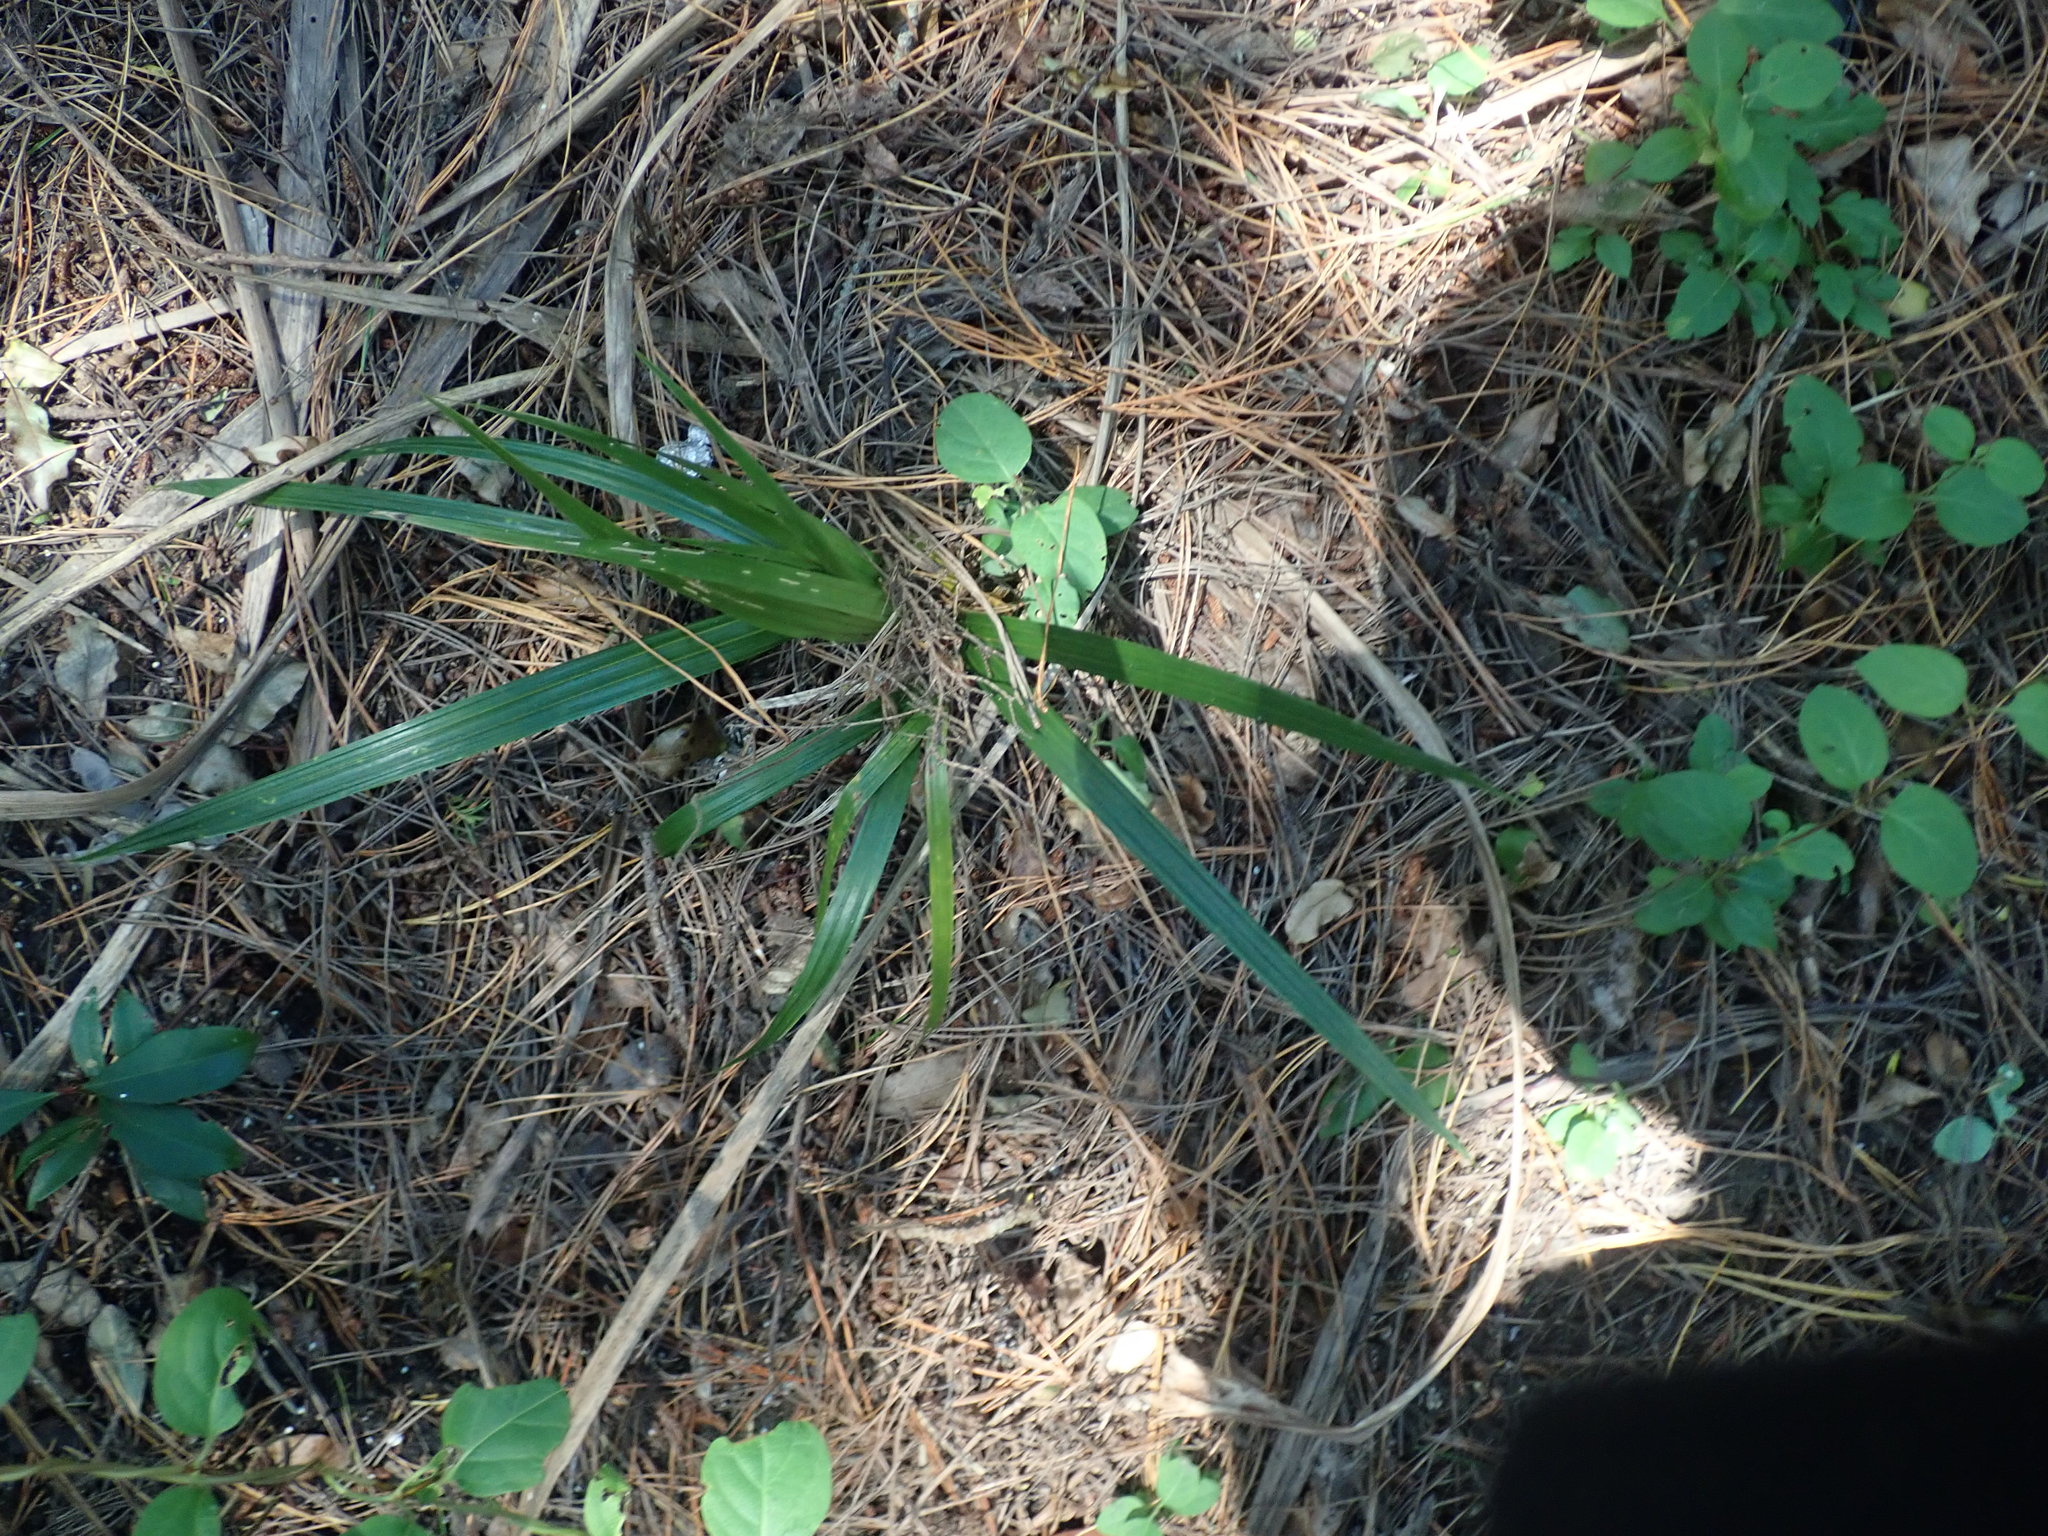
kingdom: Plantae
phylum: Tracheophyta
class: Liliopsida
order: Arecales
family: Arecaceae
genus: Rhopalostylis
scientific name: Rhopalostylis sapida
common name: Feather-duster palm
